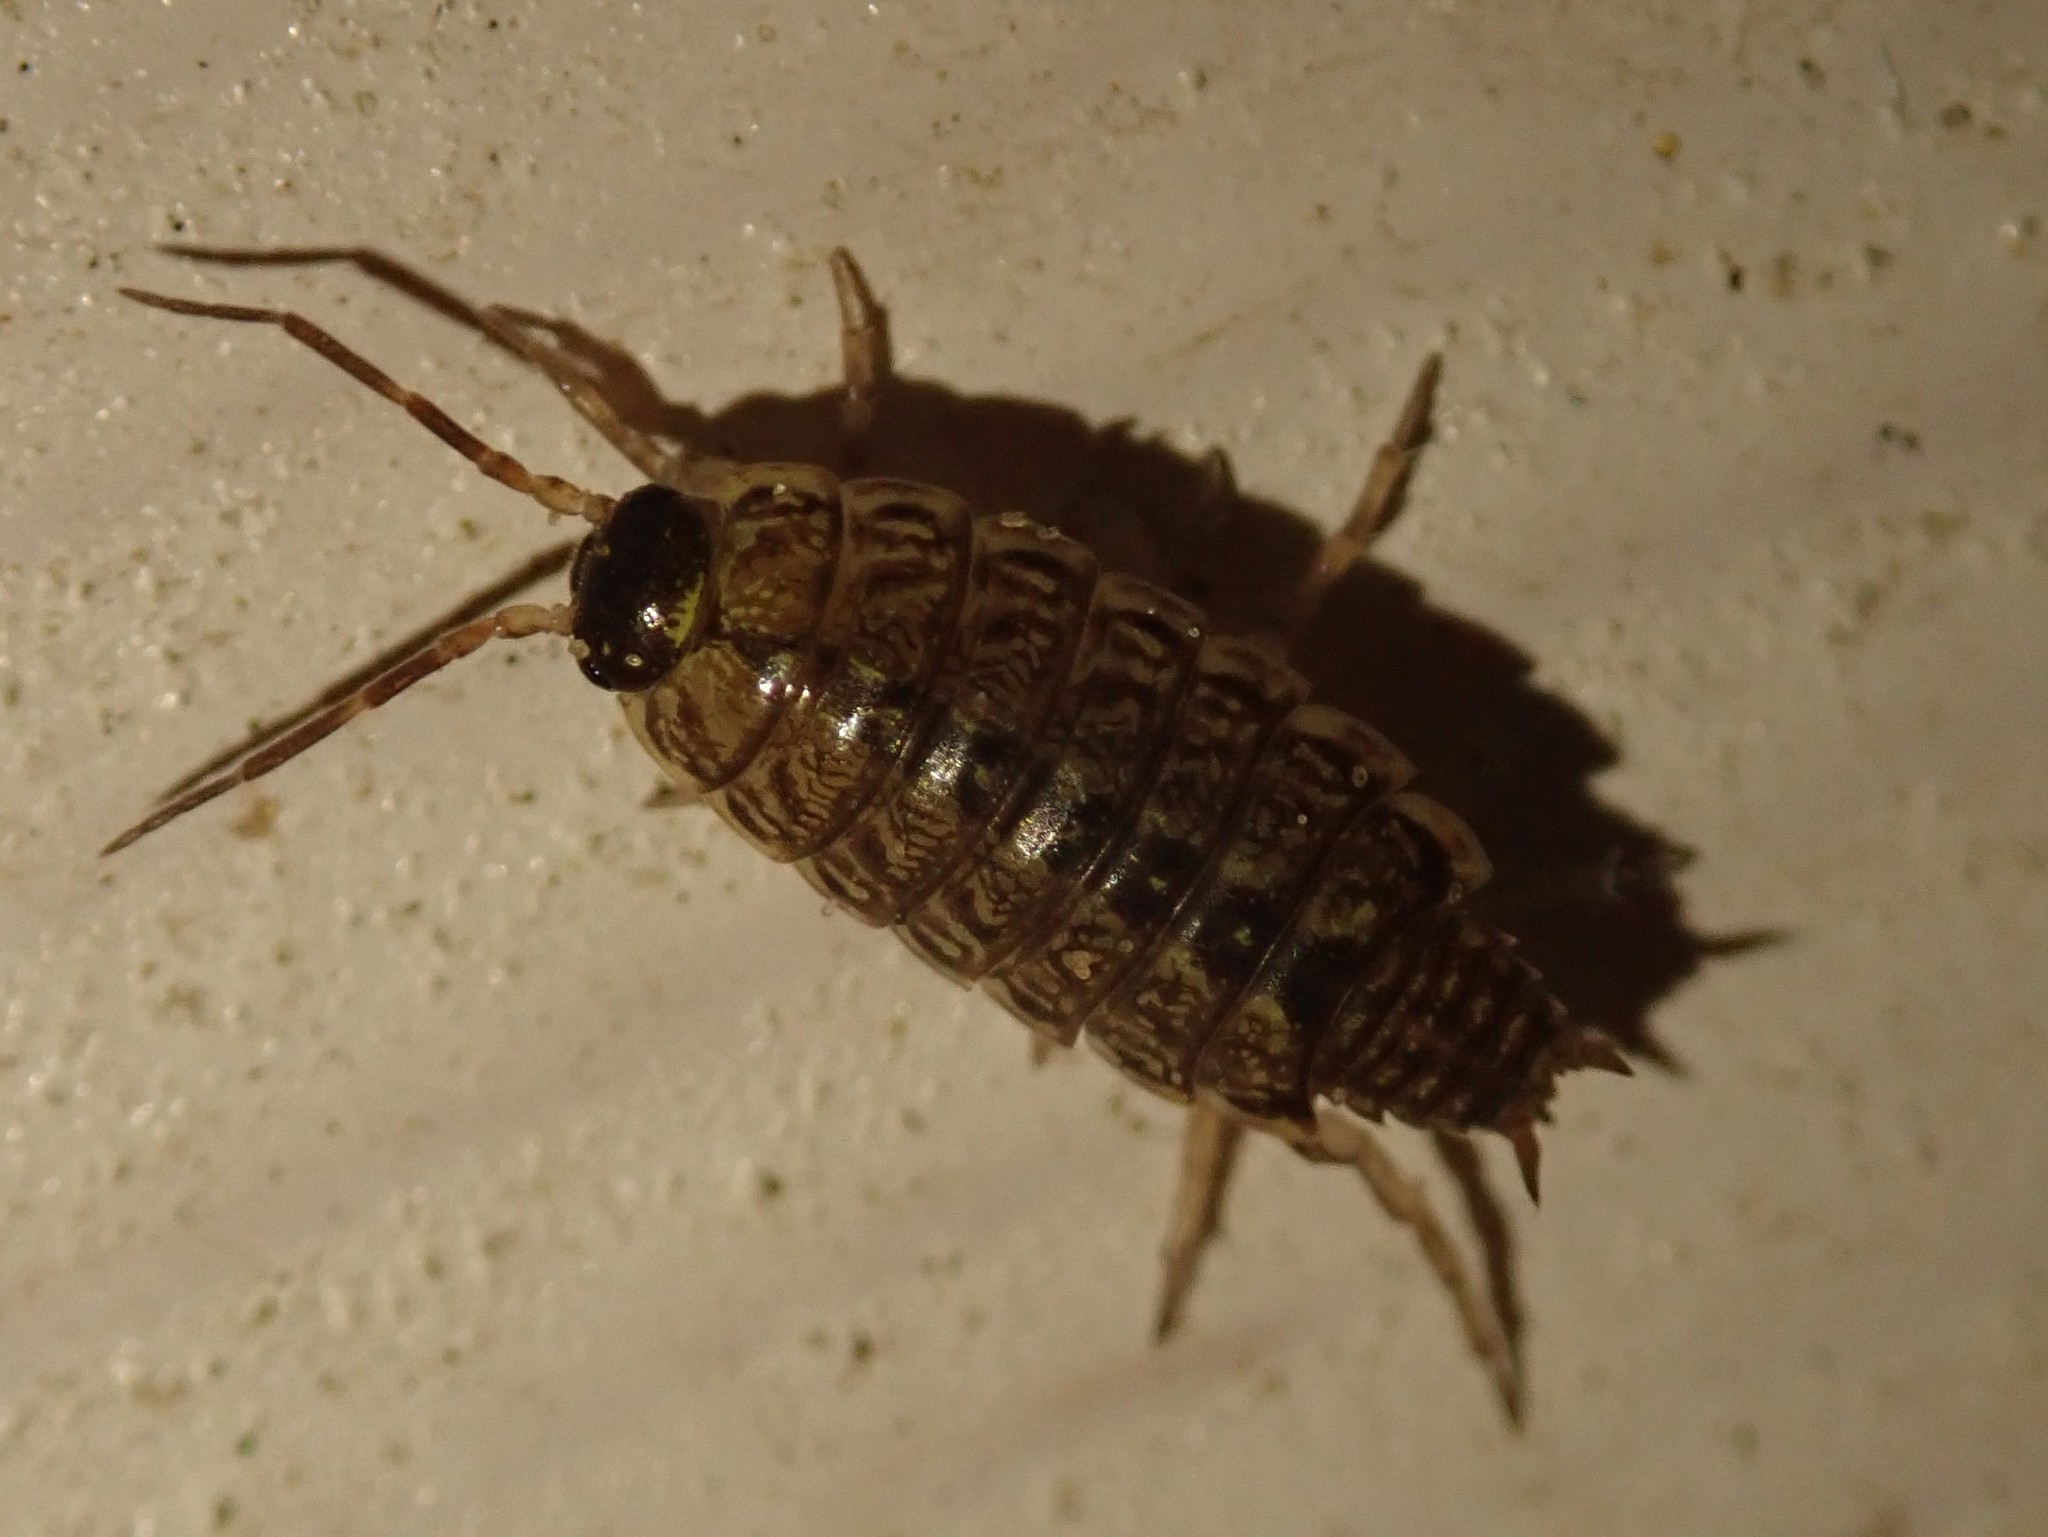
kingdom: Animalia
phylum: Arthropoda
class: Malacostraca
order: Isopoda
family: Philosciidae
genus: Philoscia
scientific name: Philoscia muscorum
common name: Common striped woodlouse
